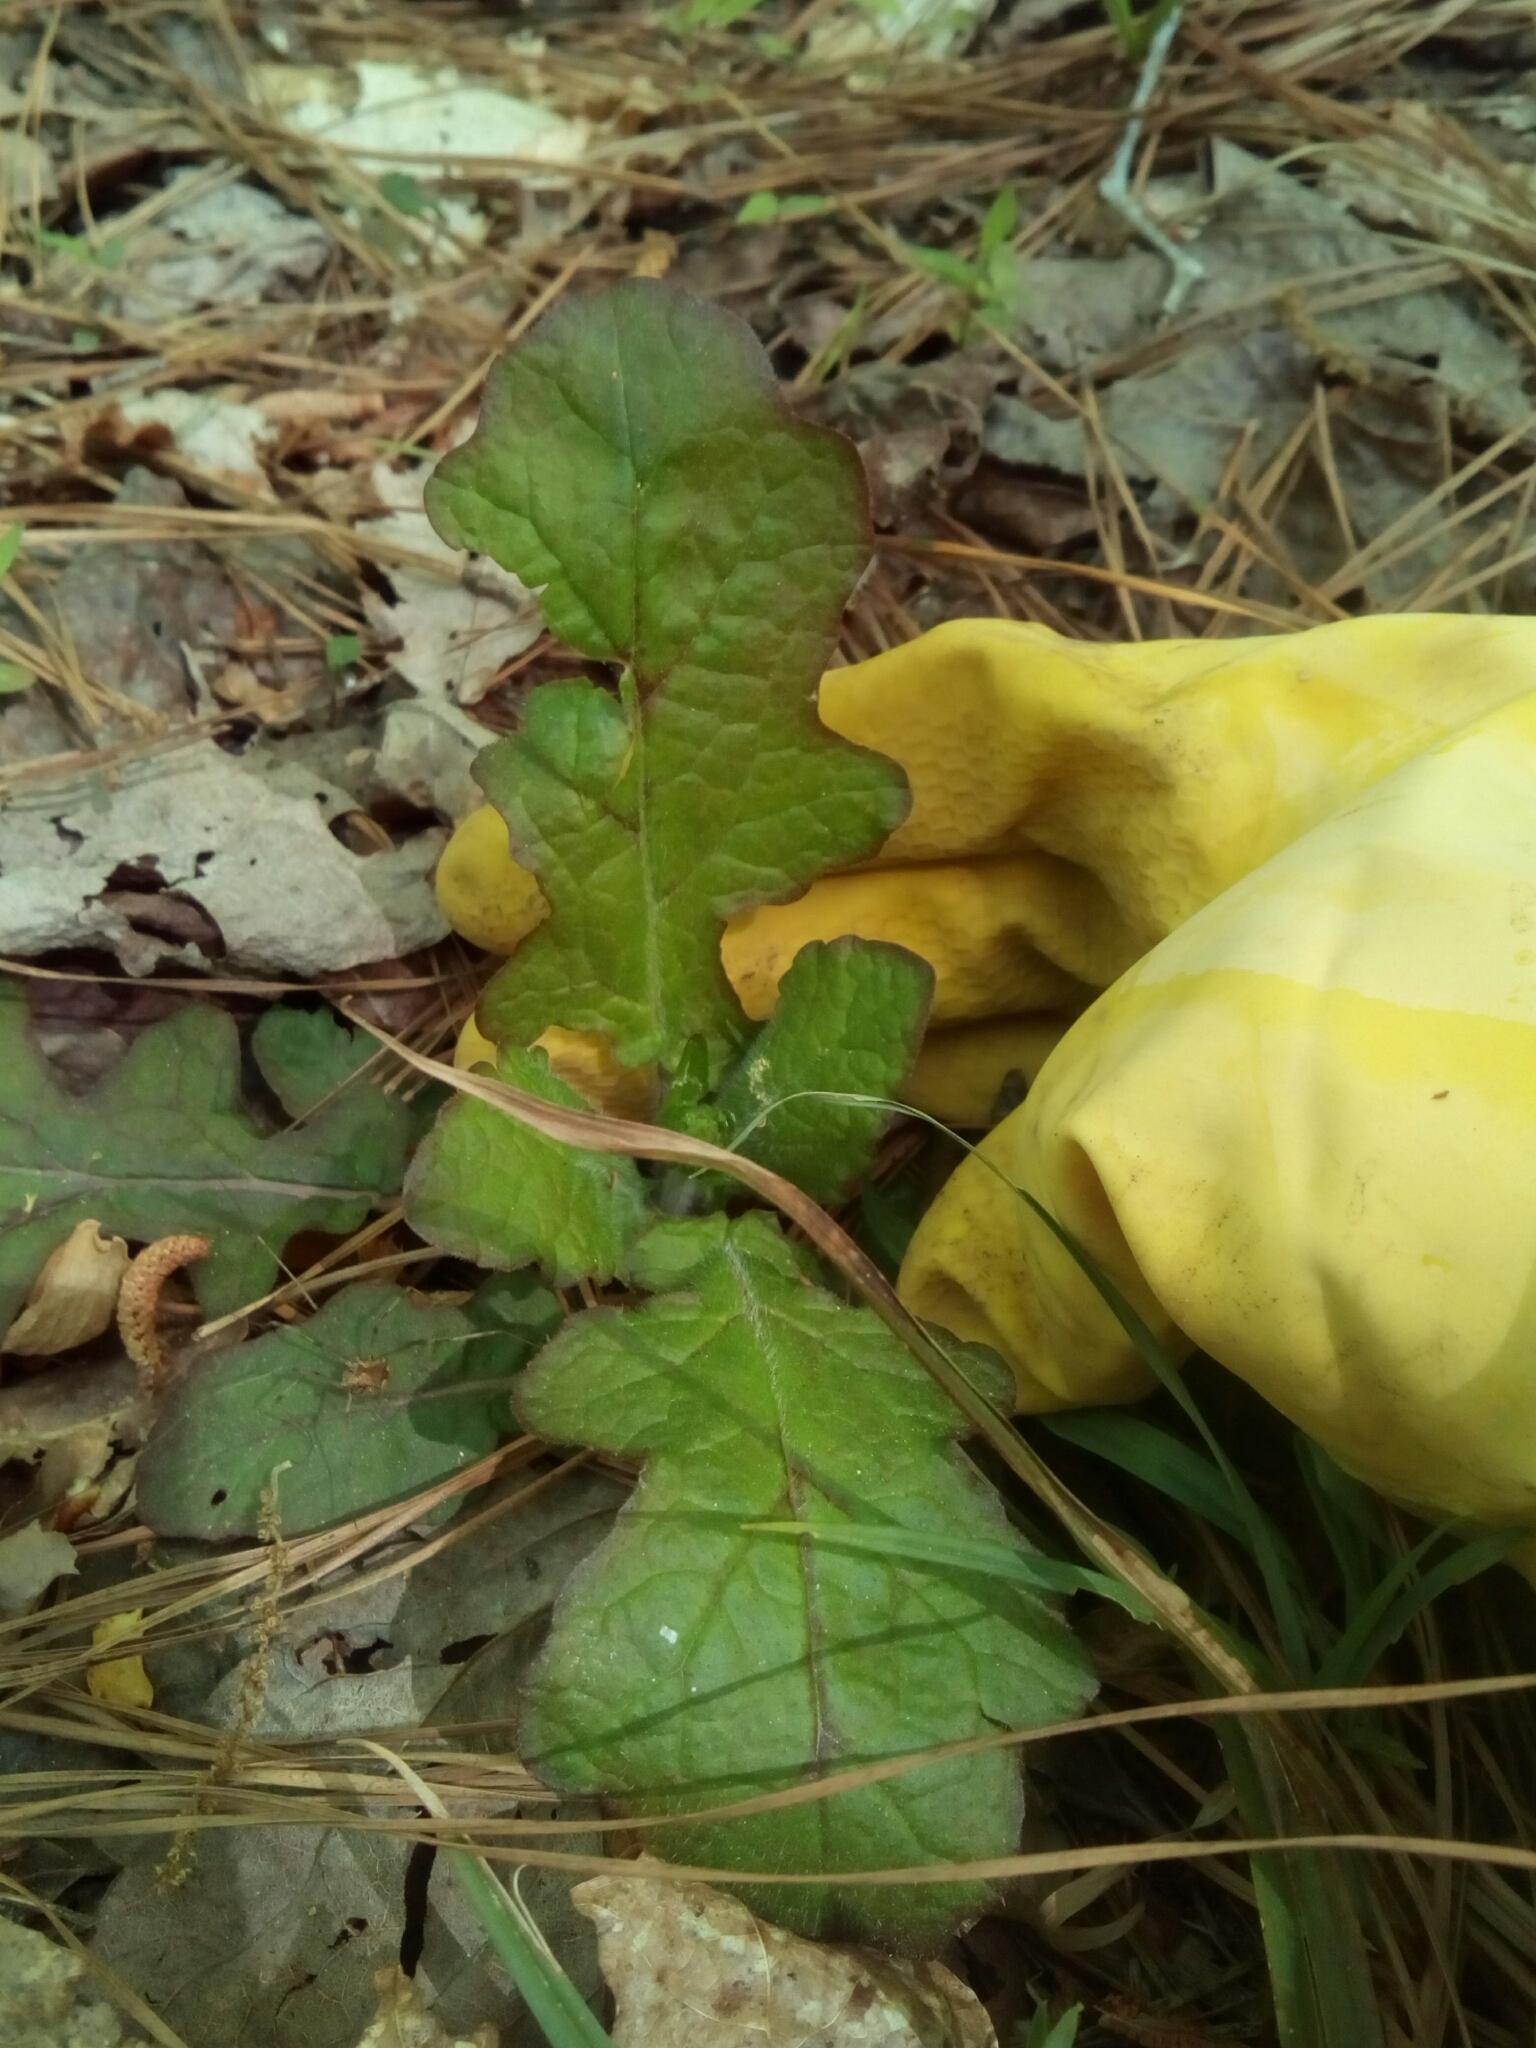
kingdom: Plantae
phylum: Tracheophyta
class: Magnoliopsida
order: Lamiales
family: Lamiaceae
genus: Salvia
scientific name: Salvia lyrata
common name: Cancerweed
